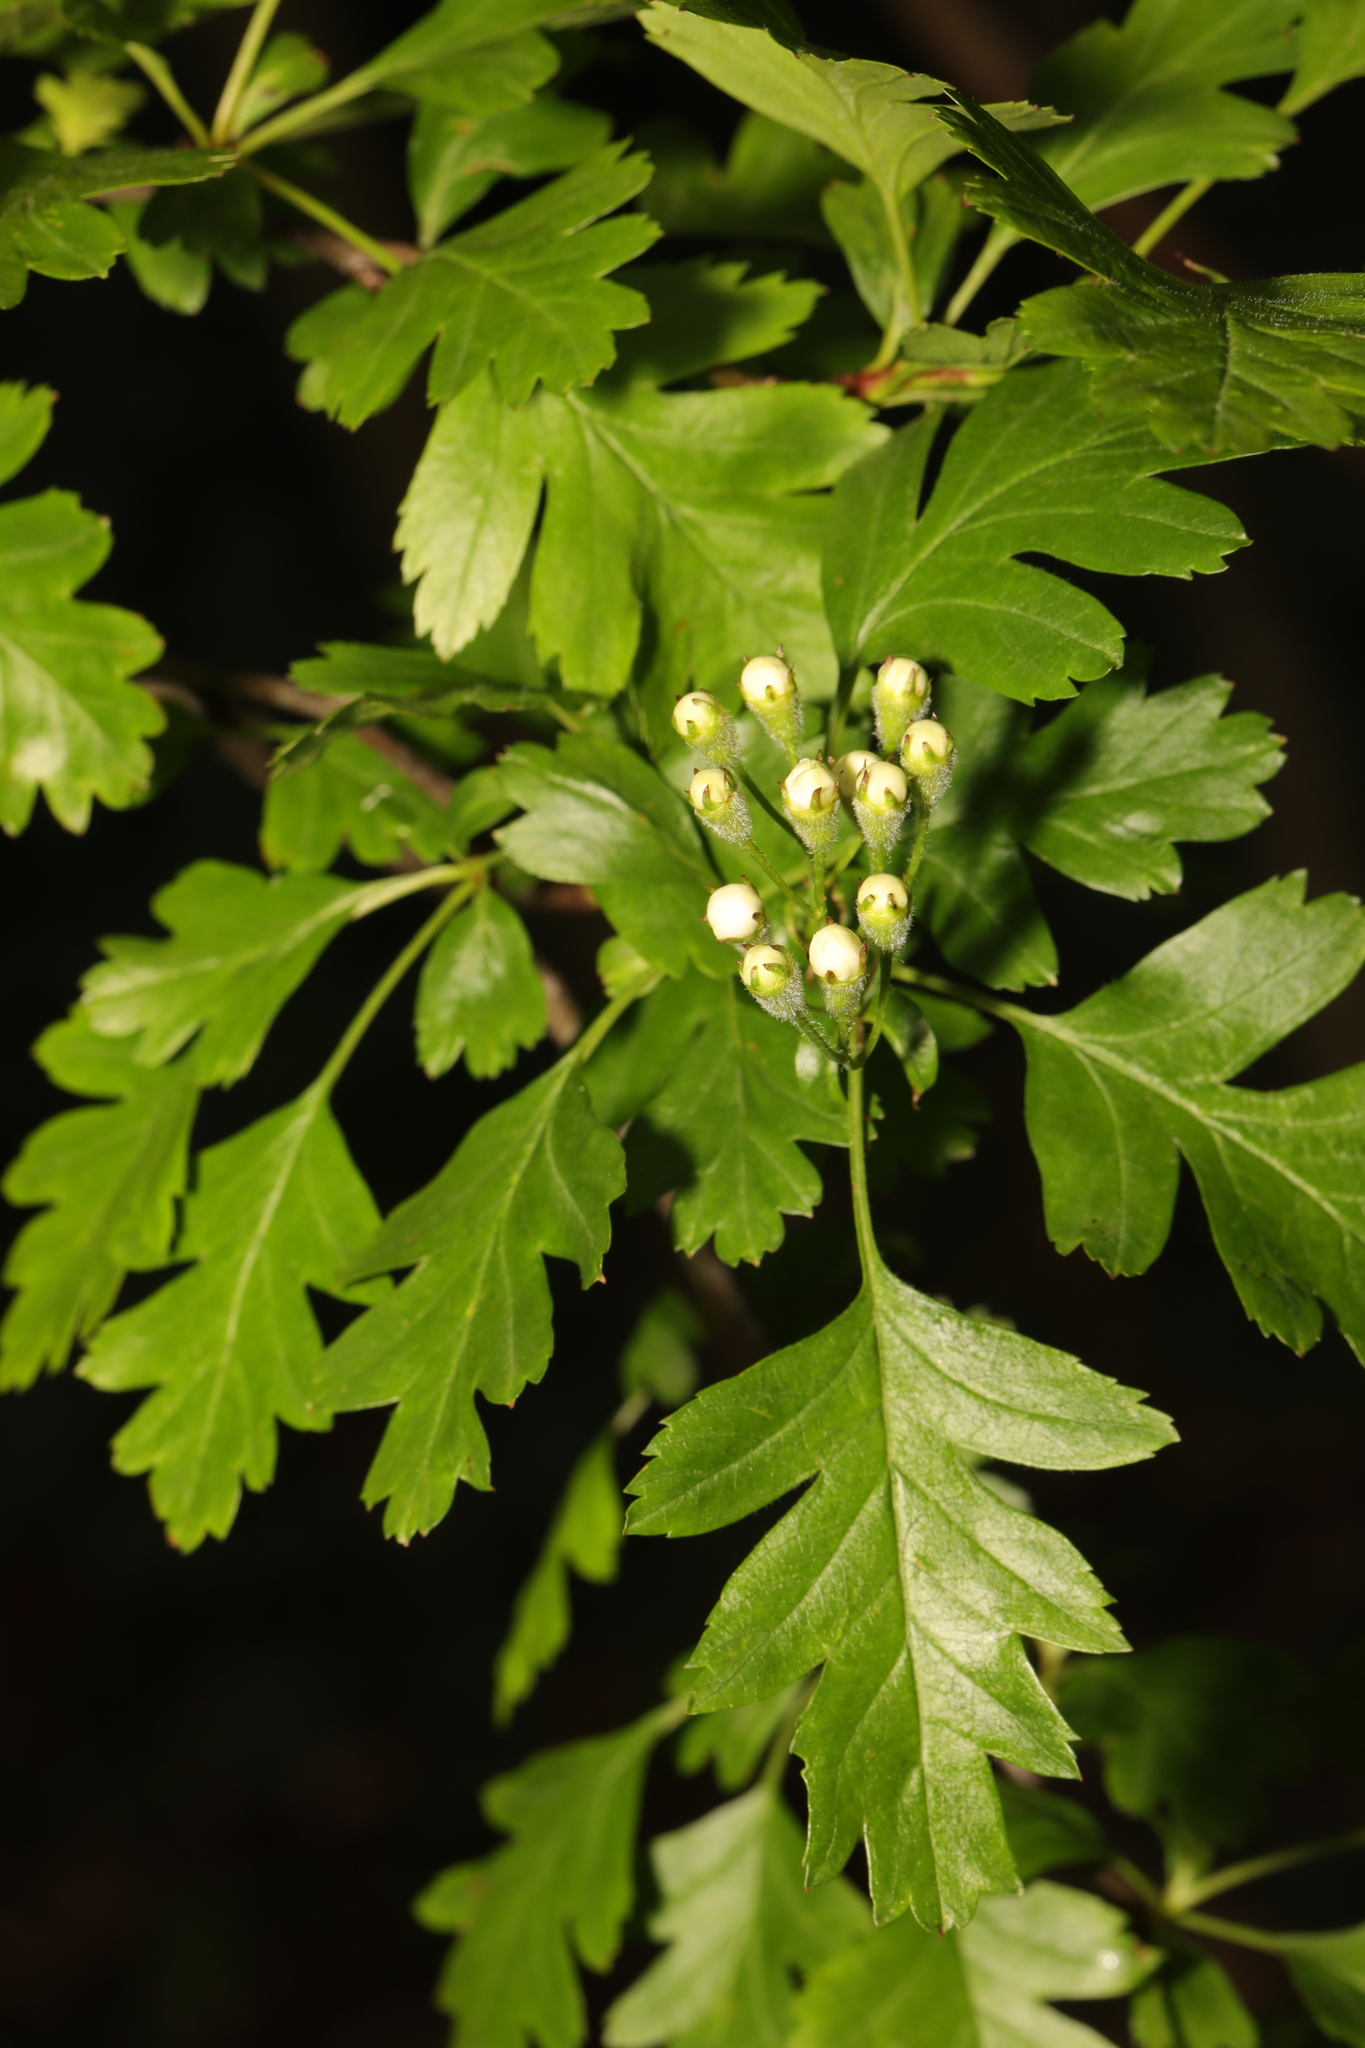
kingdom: Plantae
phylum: Tracheophyta
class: Magnoliopsida
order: Rosales
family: Rosaceae
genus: Crataegus
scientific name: Crataegus monogyna
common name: Hawthorn
